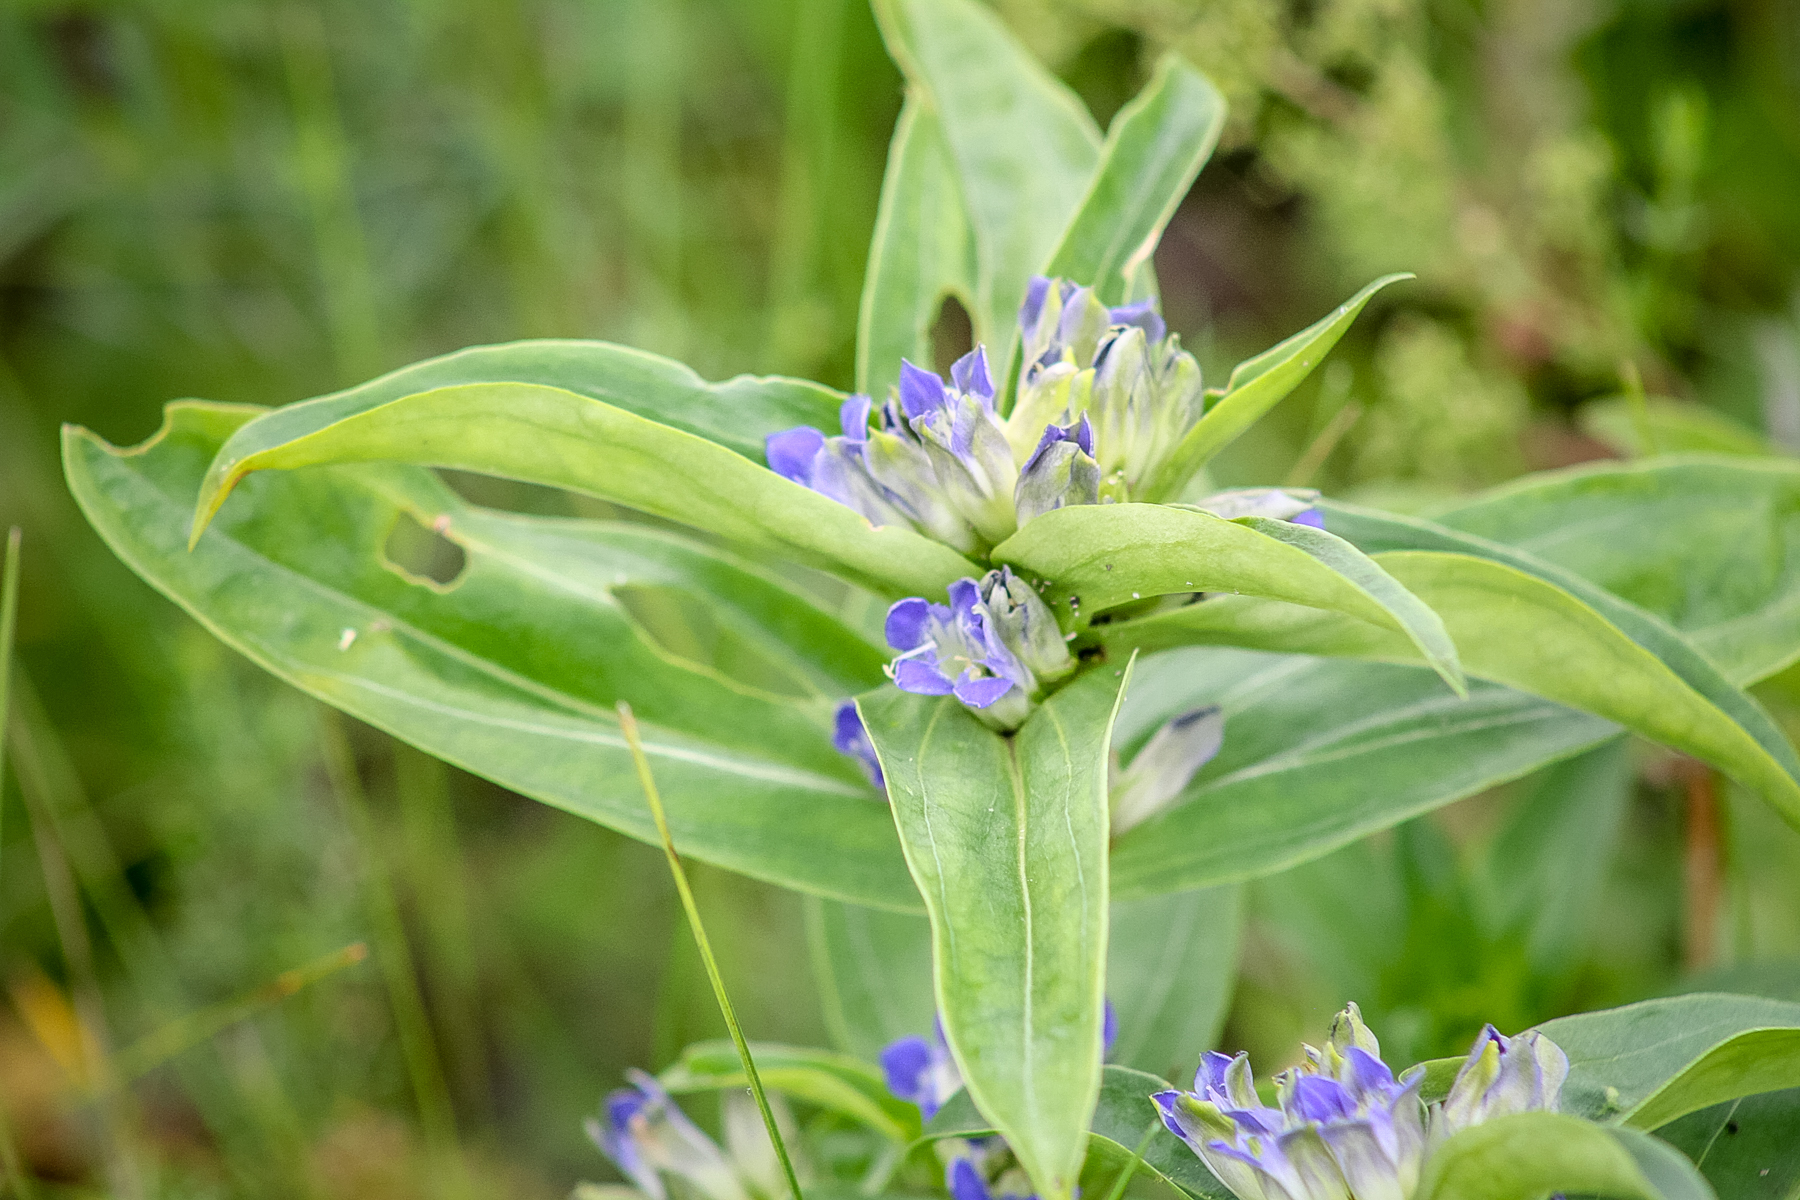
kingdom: Plantae
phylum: Tracheophyta
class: Magnoliopsida
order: Gentianales
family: Gentianaceae
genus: Gentiana
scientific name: Gentiana cruciata
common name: Cross gentian
